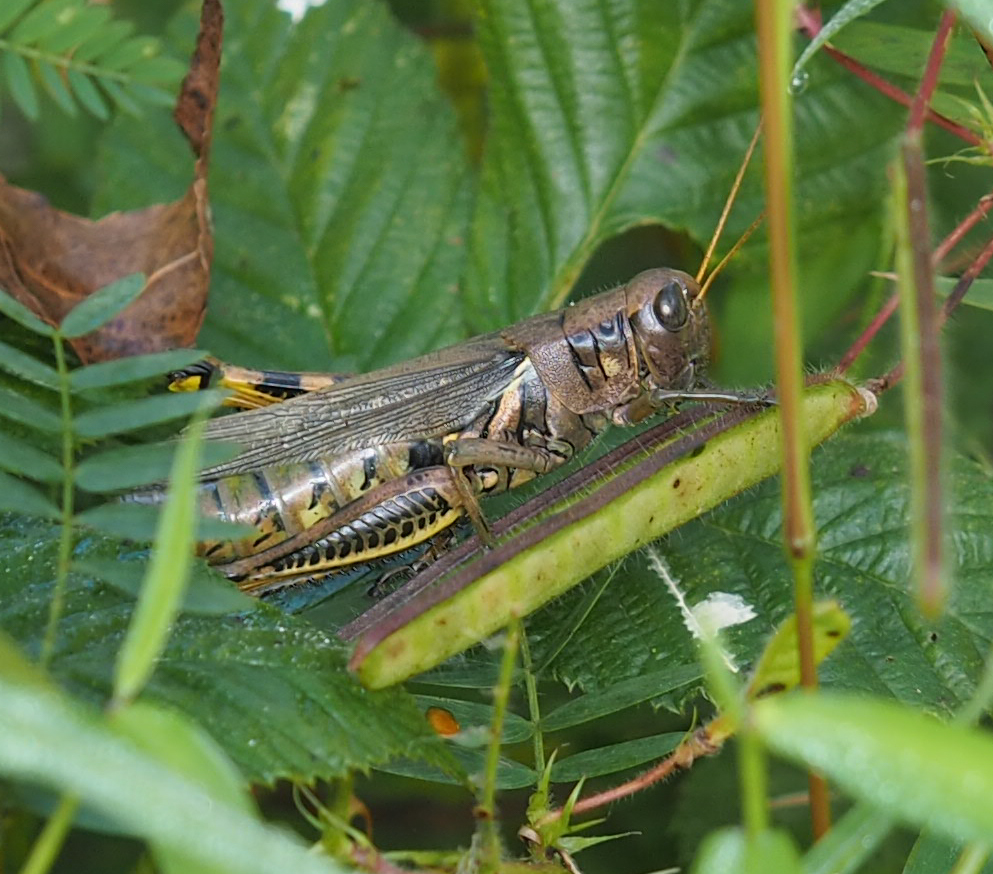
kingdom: Animalia
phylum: Arthropoda
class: Insecta
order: Orthoptera
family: Acrididae
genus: Melanoplus
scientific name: Melanoplus differentialis
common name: Differential grasshopper
